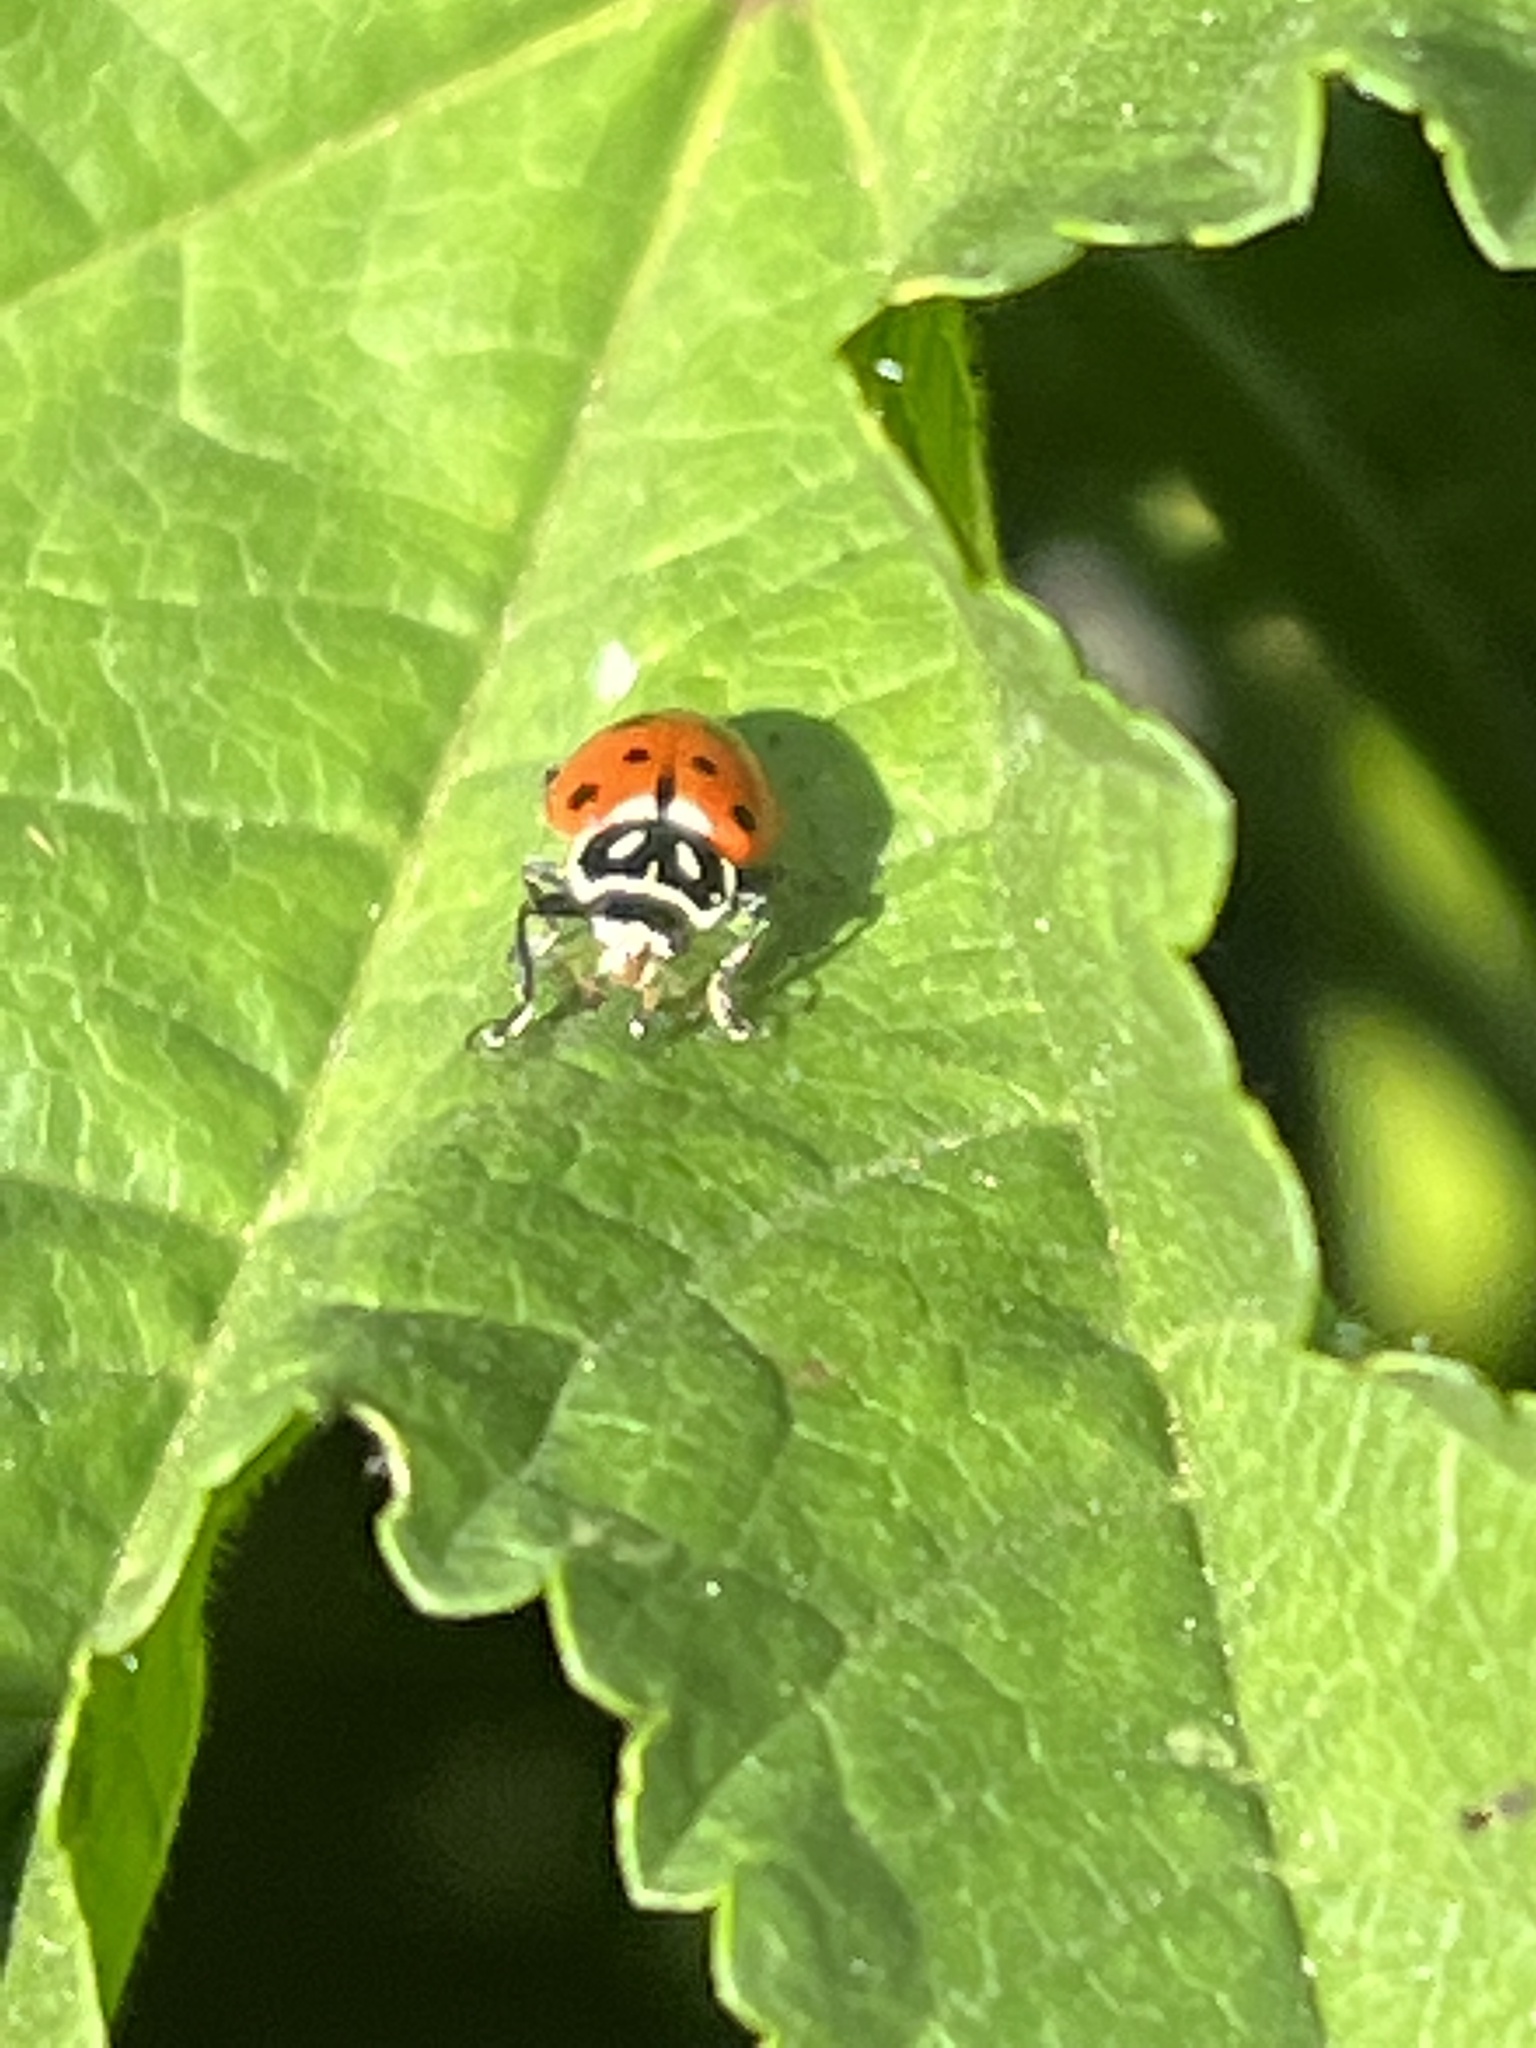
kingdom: Animalia
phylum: Arthropoda
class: Insecta
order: Coleoptera
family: Coccinellidae
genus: Hippodamia
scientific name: Hippodamia convergens
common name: Convergent lady beetle
